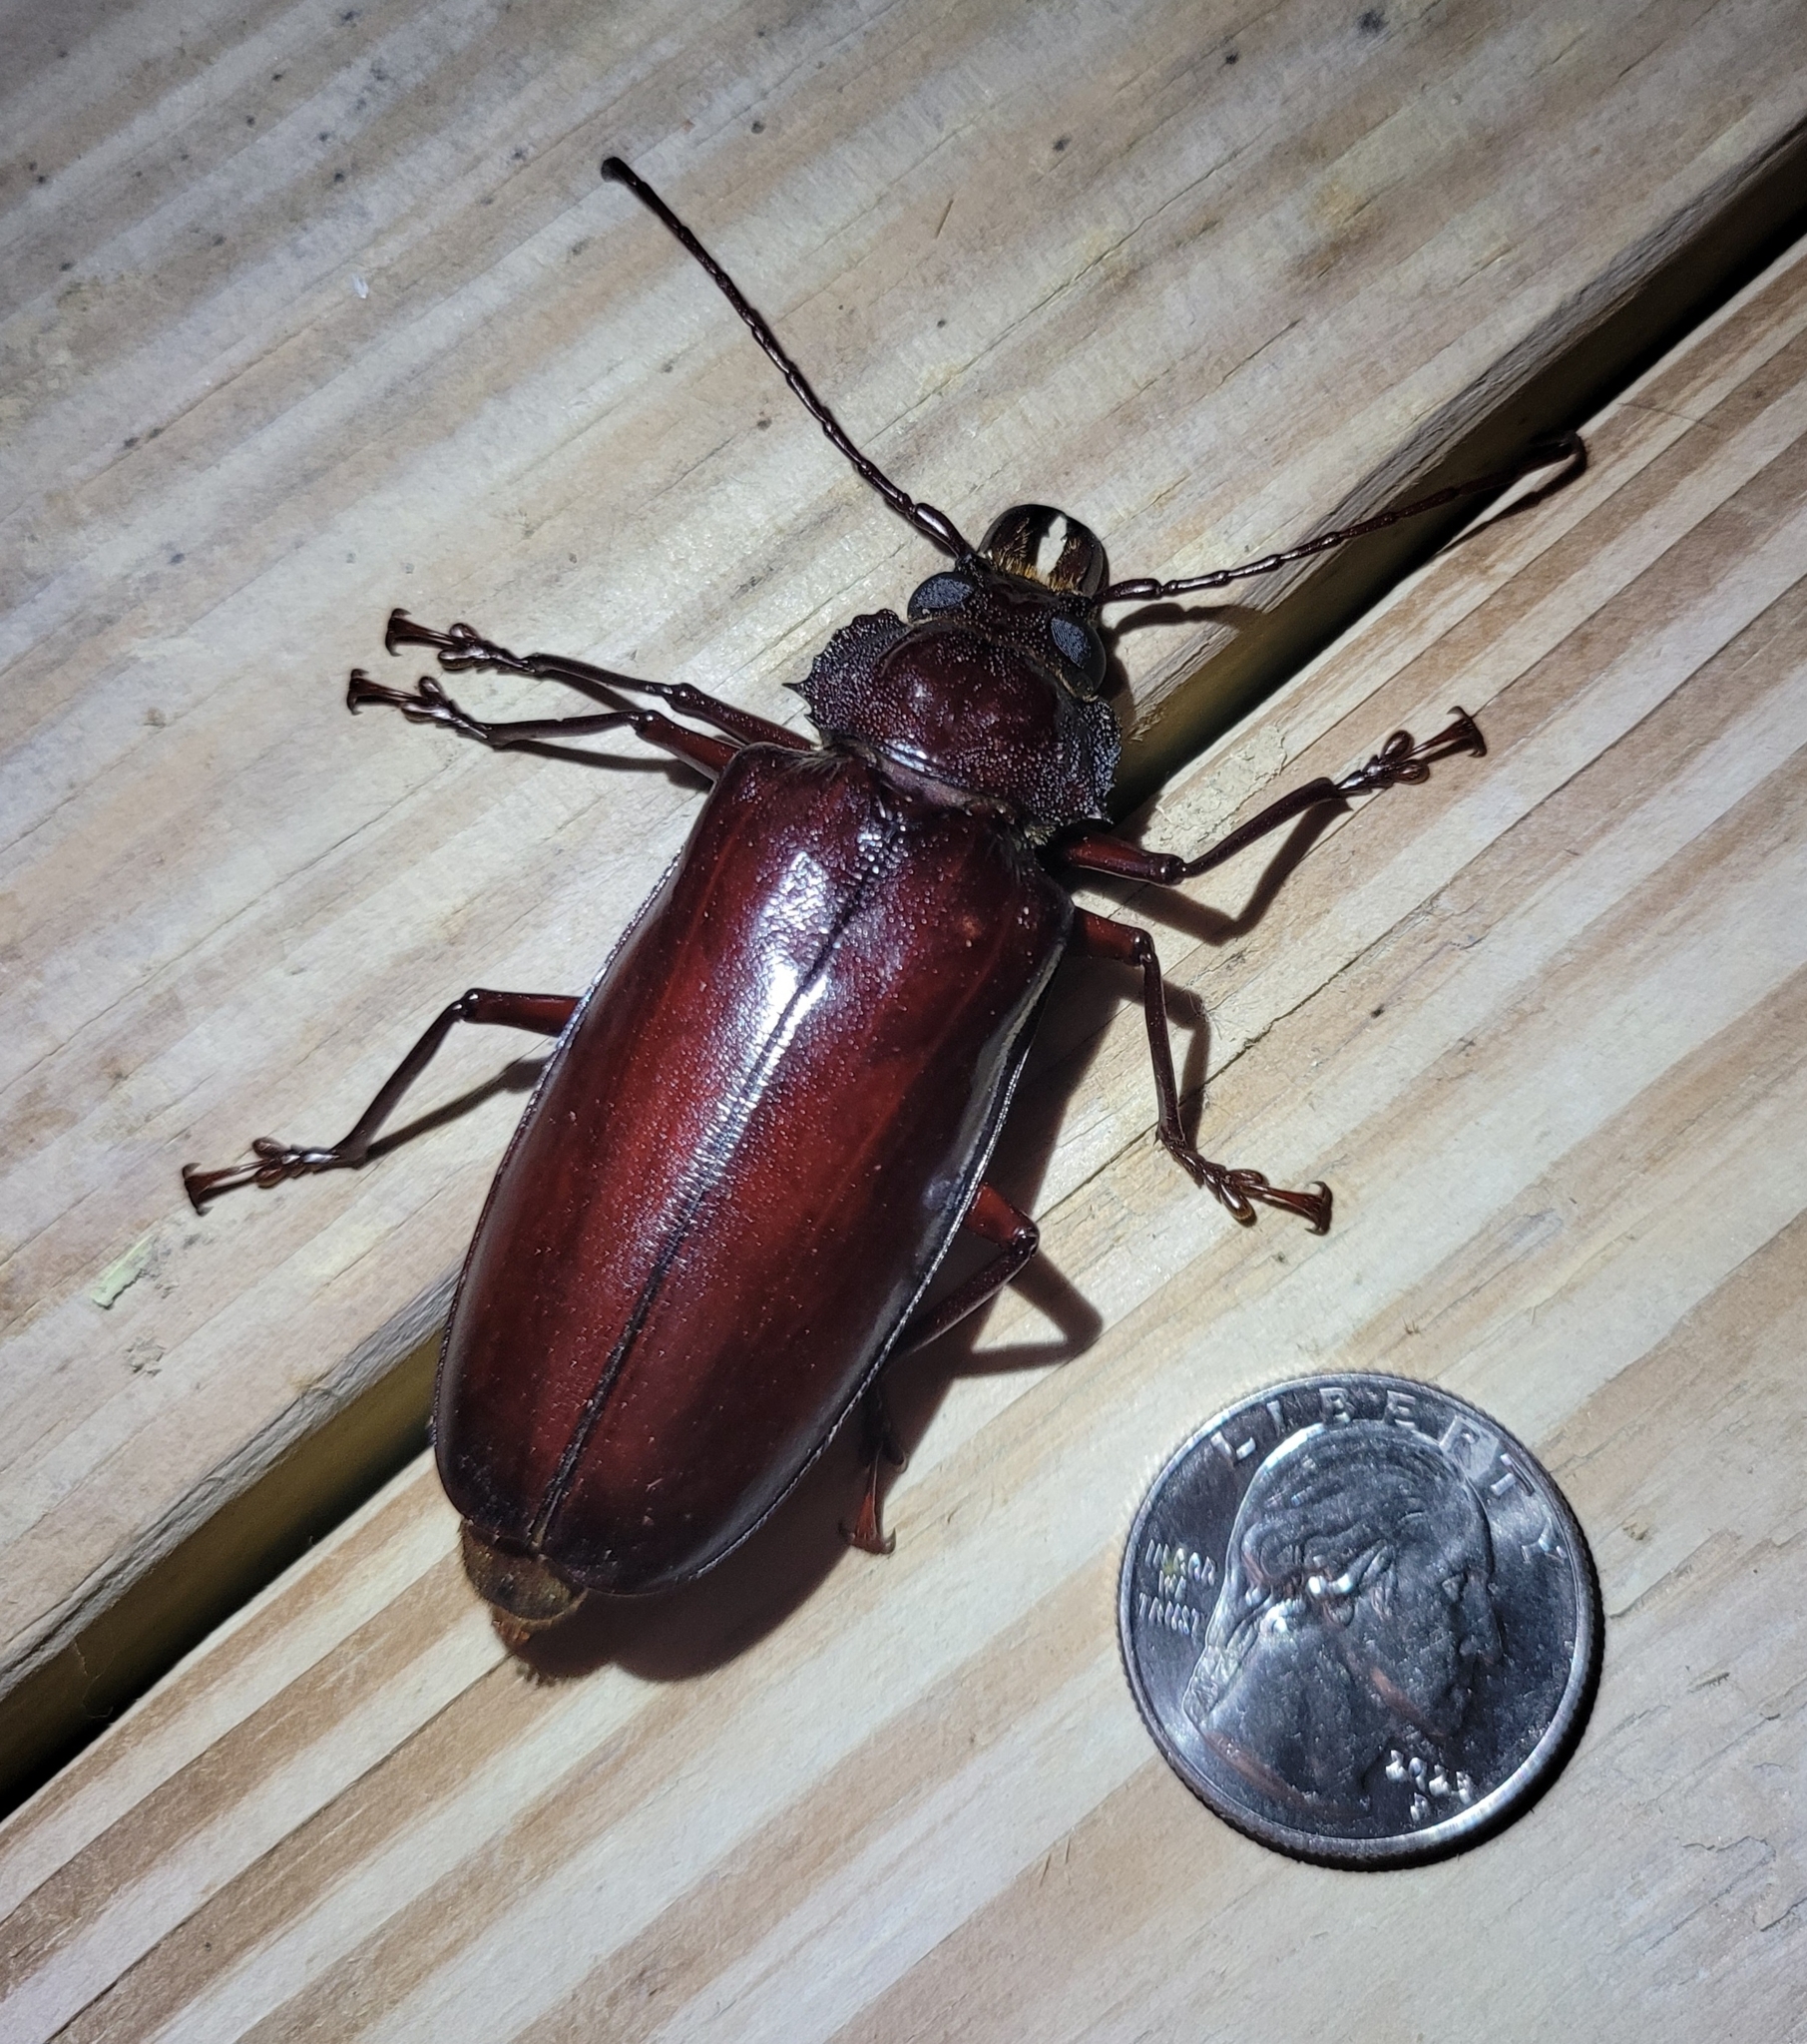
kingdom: Animalia
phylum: Arthropoda
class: Insecta
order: Coleoptera
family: Cerambycidae
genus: Stenodontes
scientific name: Stenodontes exsertus
